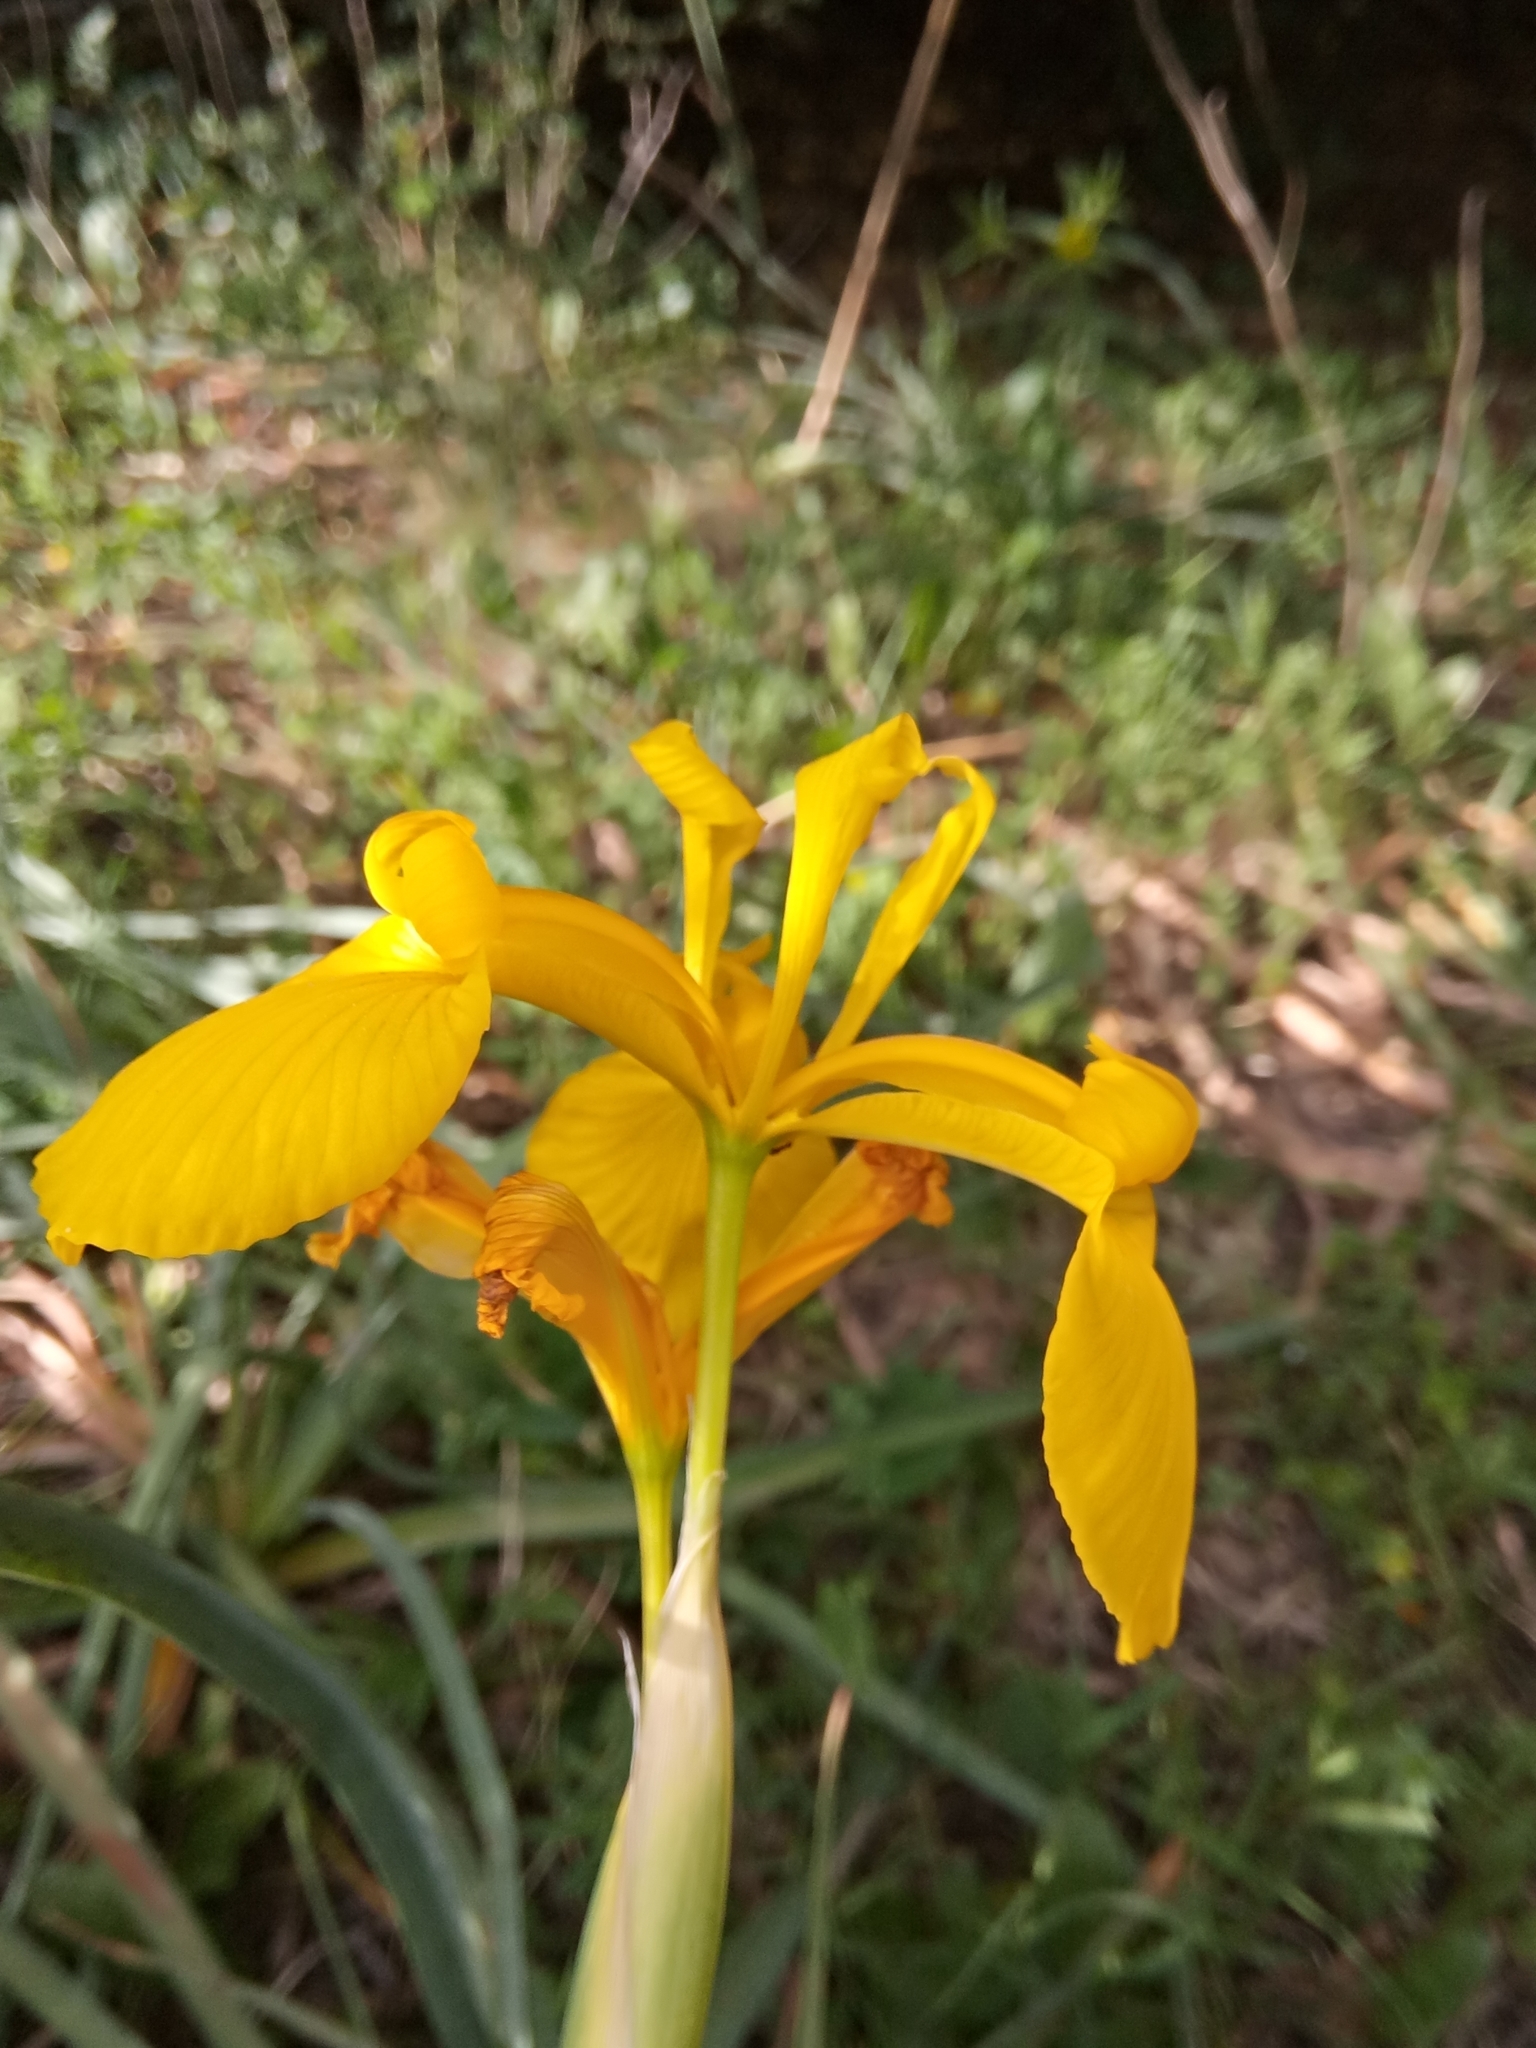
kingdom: Plantae
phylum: Tracheophyta
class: Liliopsida
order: Asparagales
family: Iridaceae
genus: Iris
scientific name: Iris juncea
